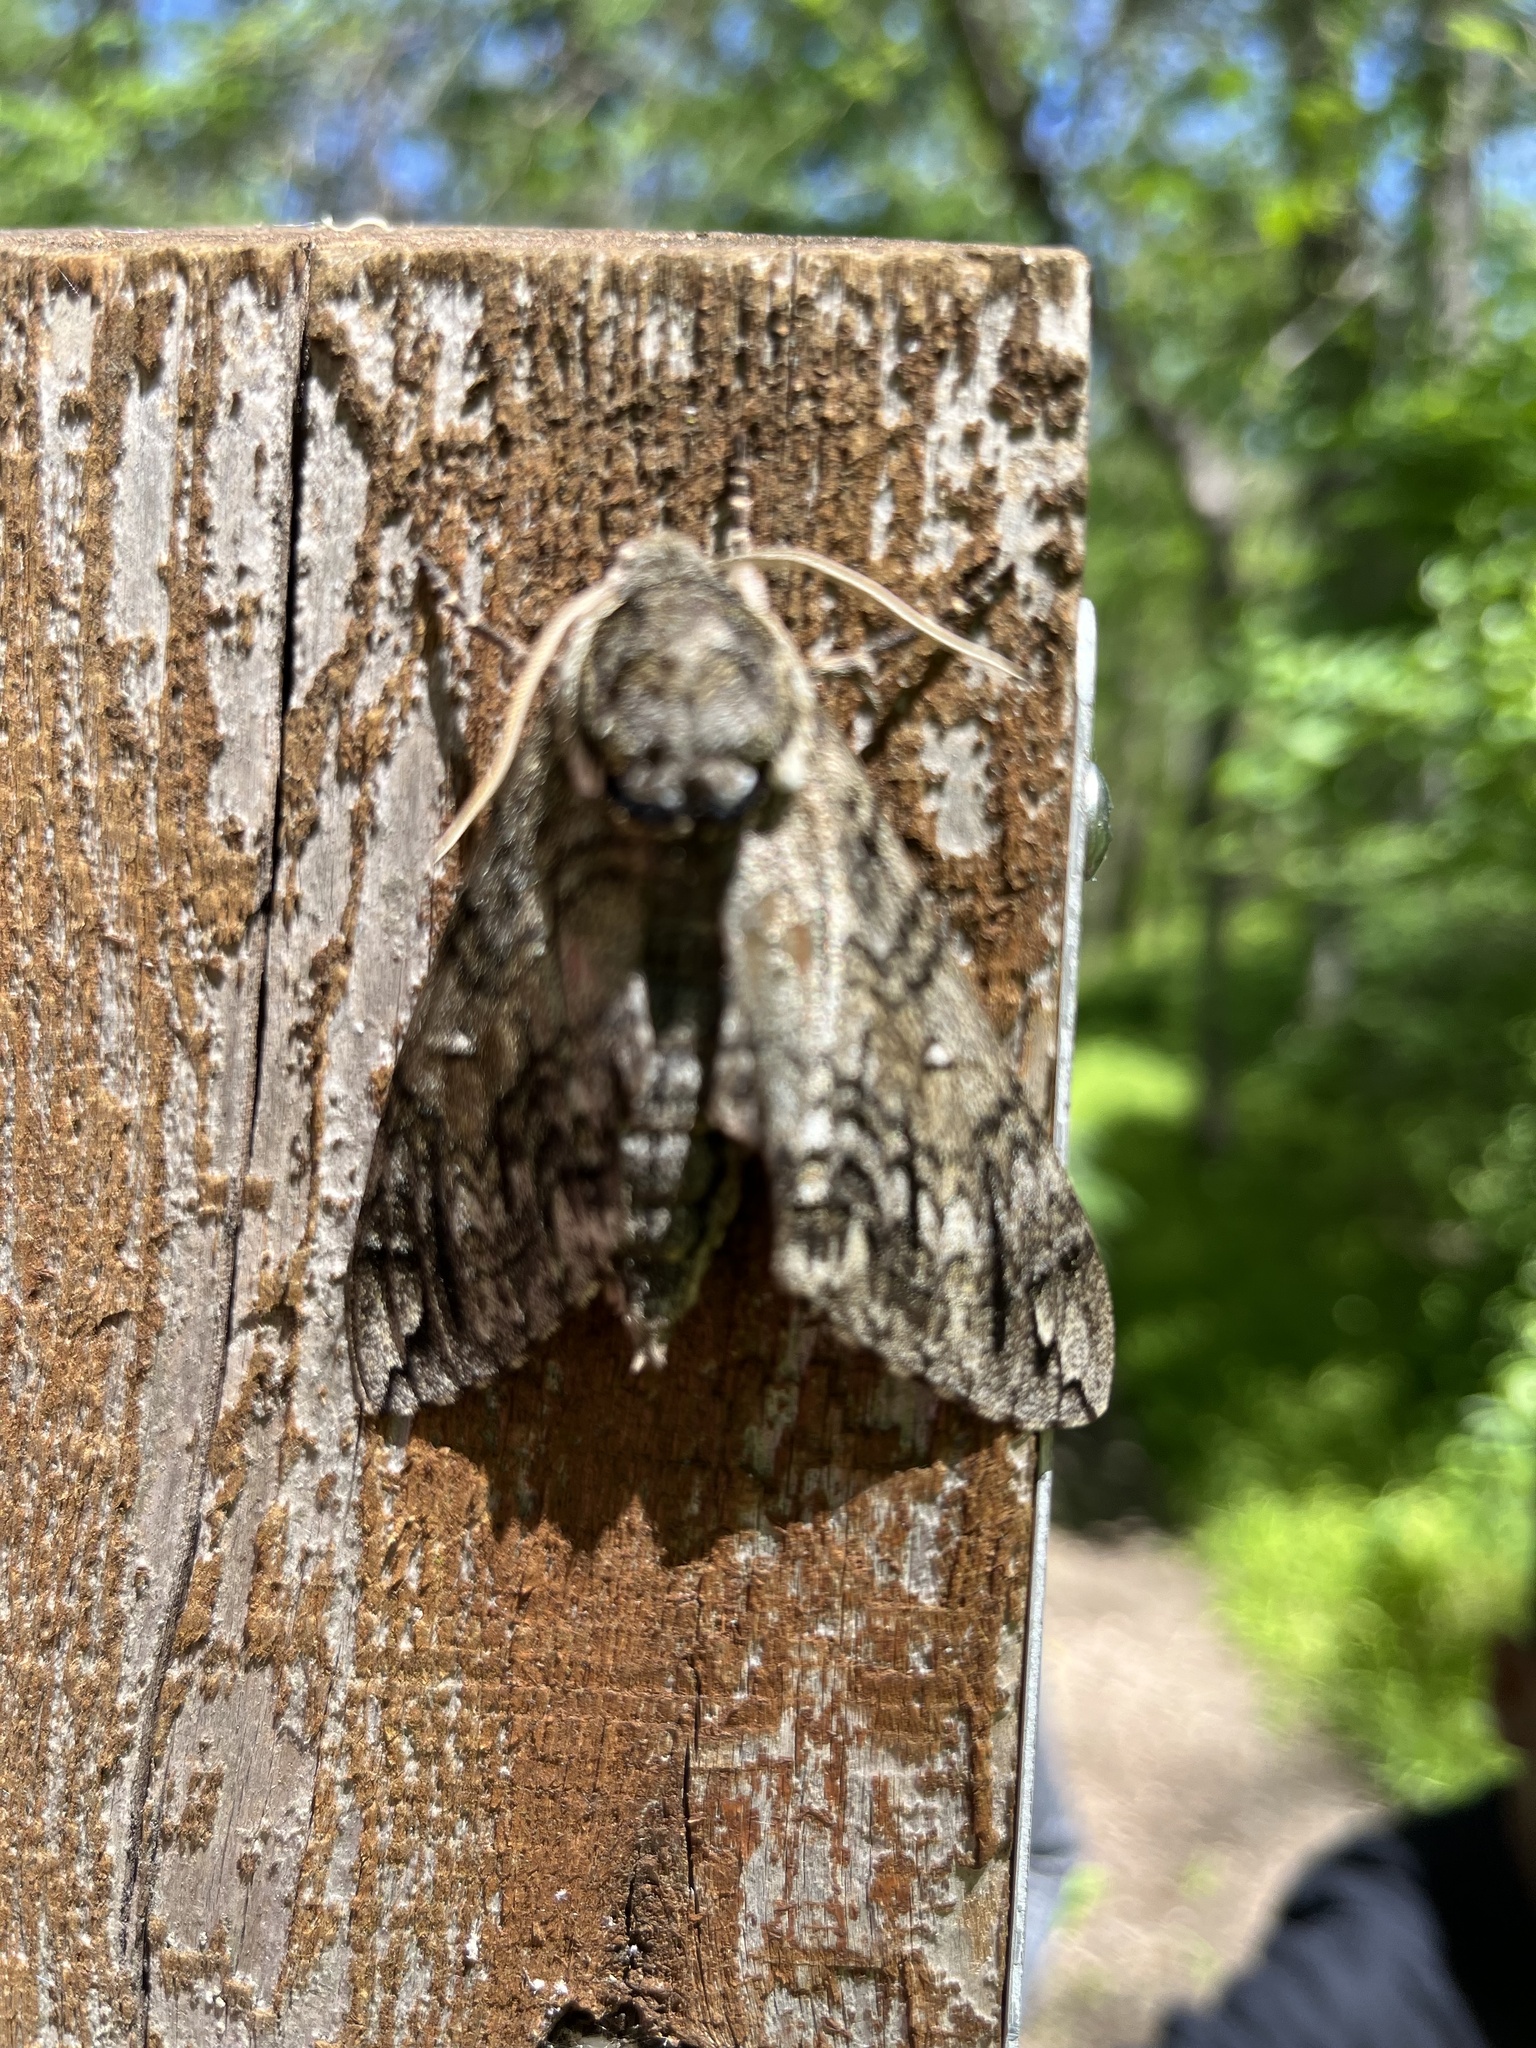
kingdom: Animalia
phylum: Arthropoda
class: Insecta
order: Lepidoptera
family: Sphingidae
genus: Ceratomia
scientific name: Ceratomia undulosa
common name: Waved sphinx
